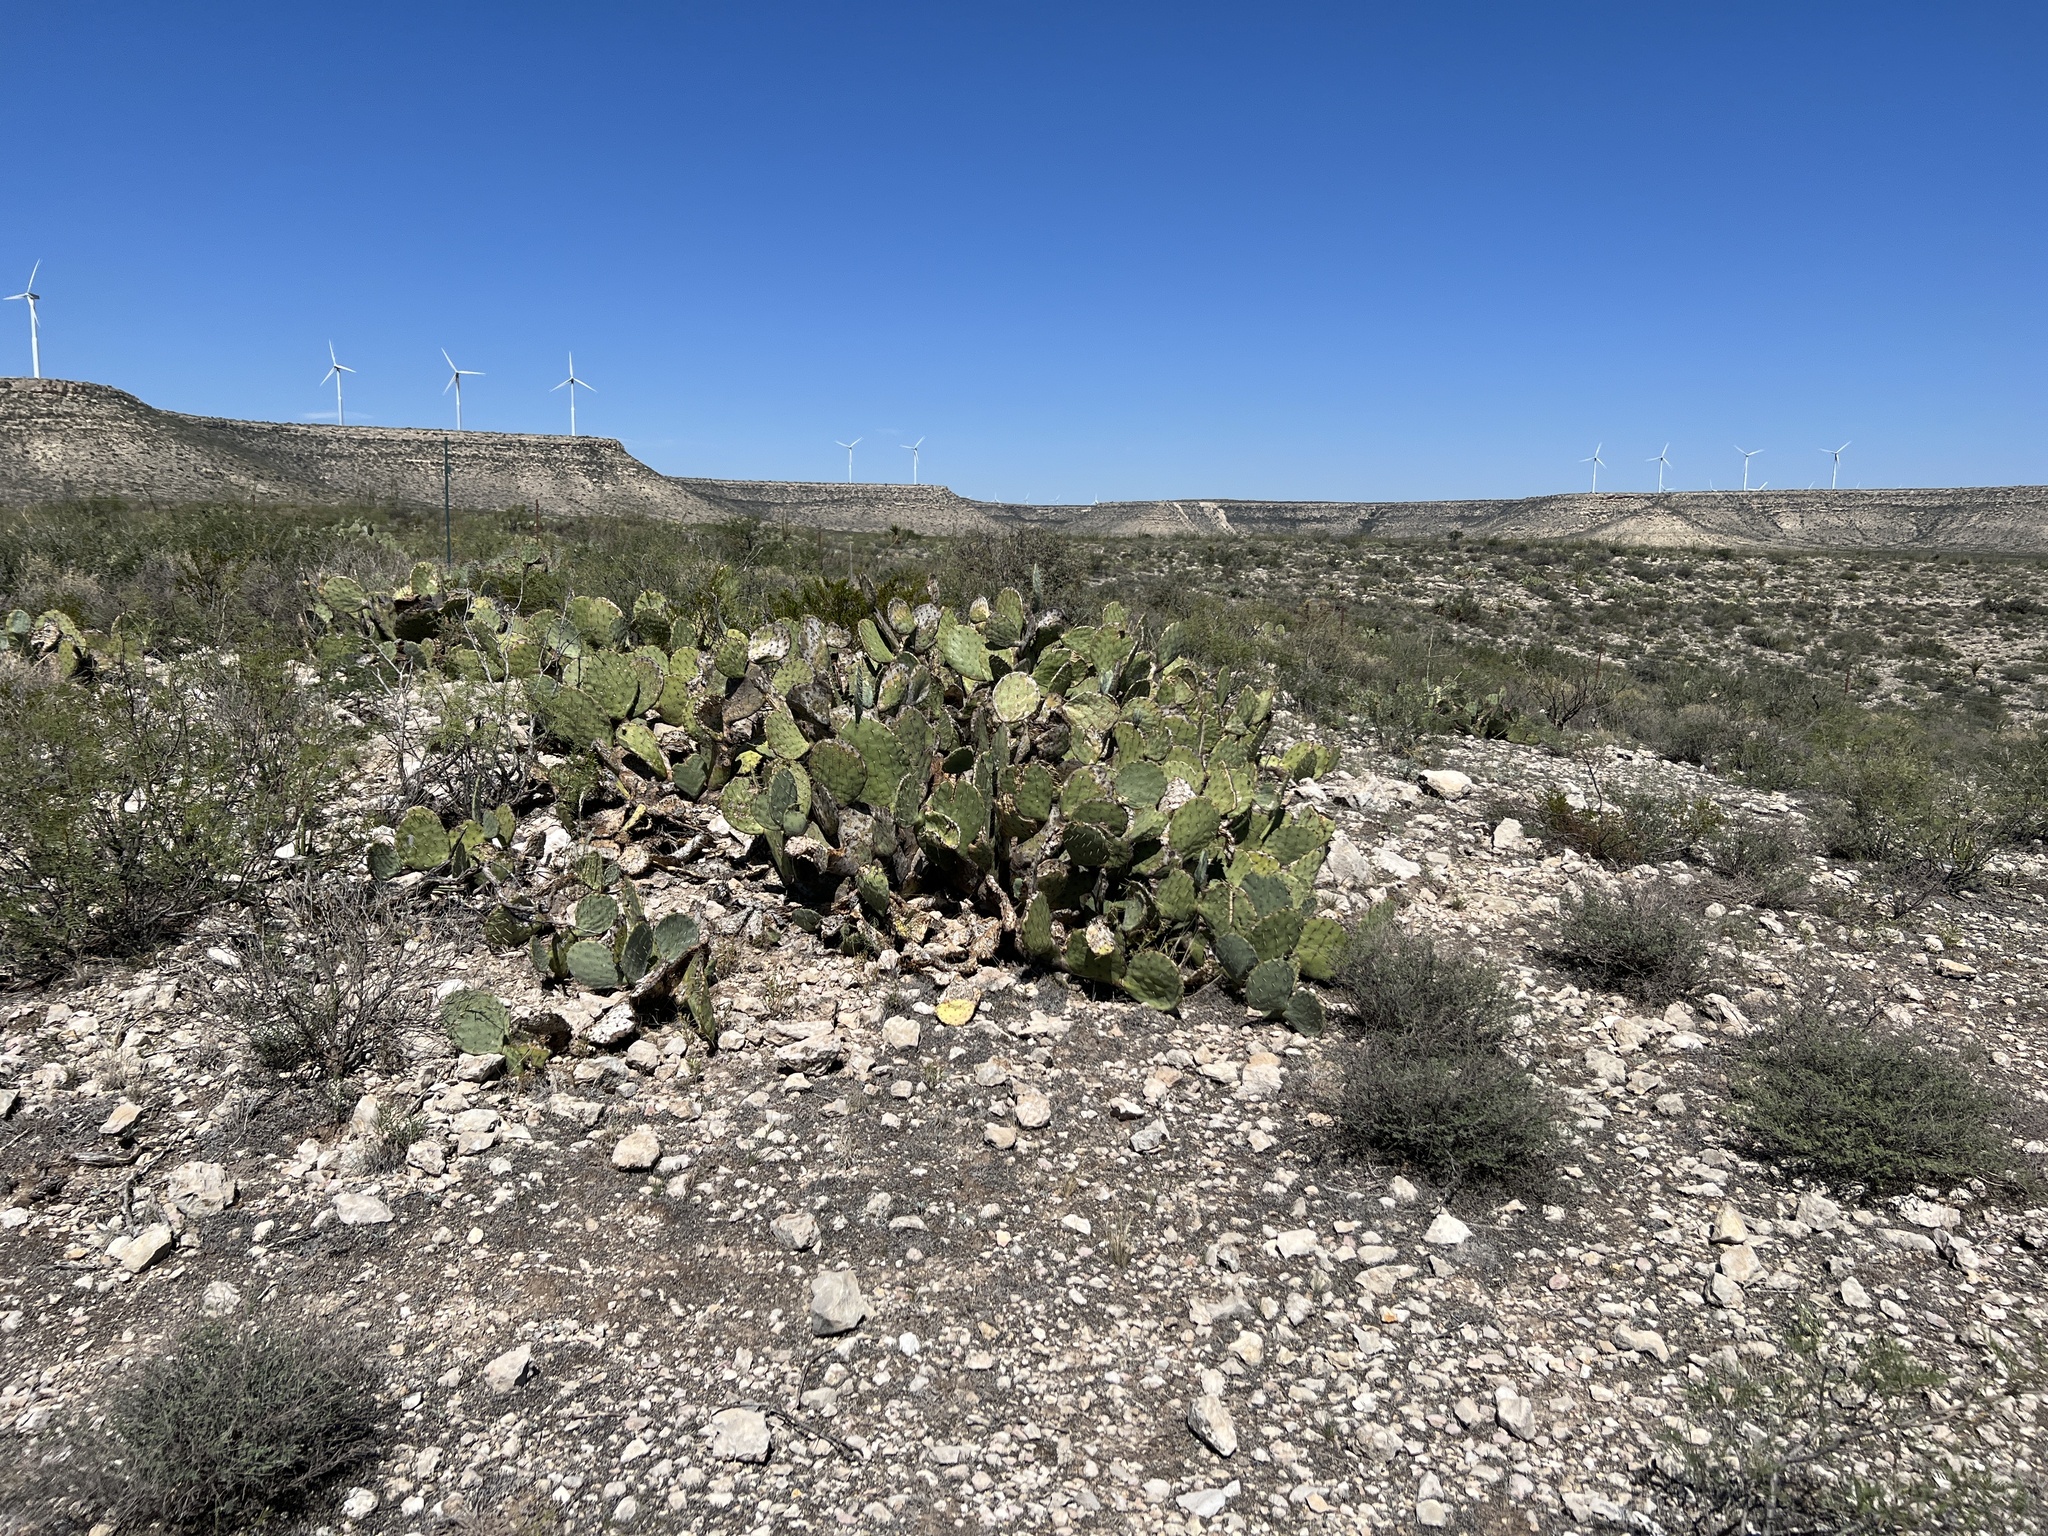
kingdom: Plantae
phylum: Tracheophyta
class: Magnoliopsida
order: Caryophyllales
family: Cactaceae
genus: Opuntia
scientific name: Opuntia engelmannii
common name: Cactus-apple
